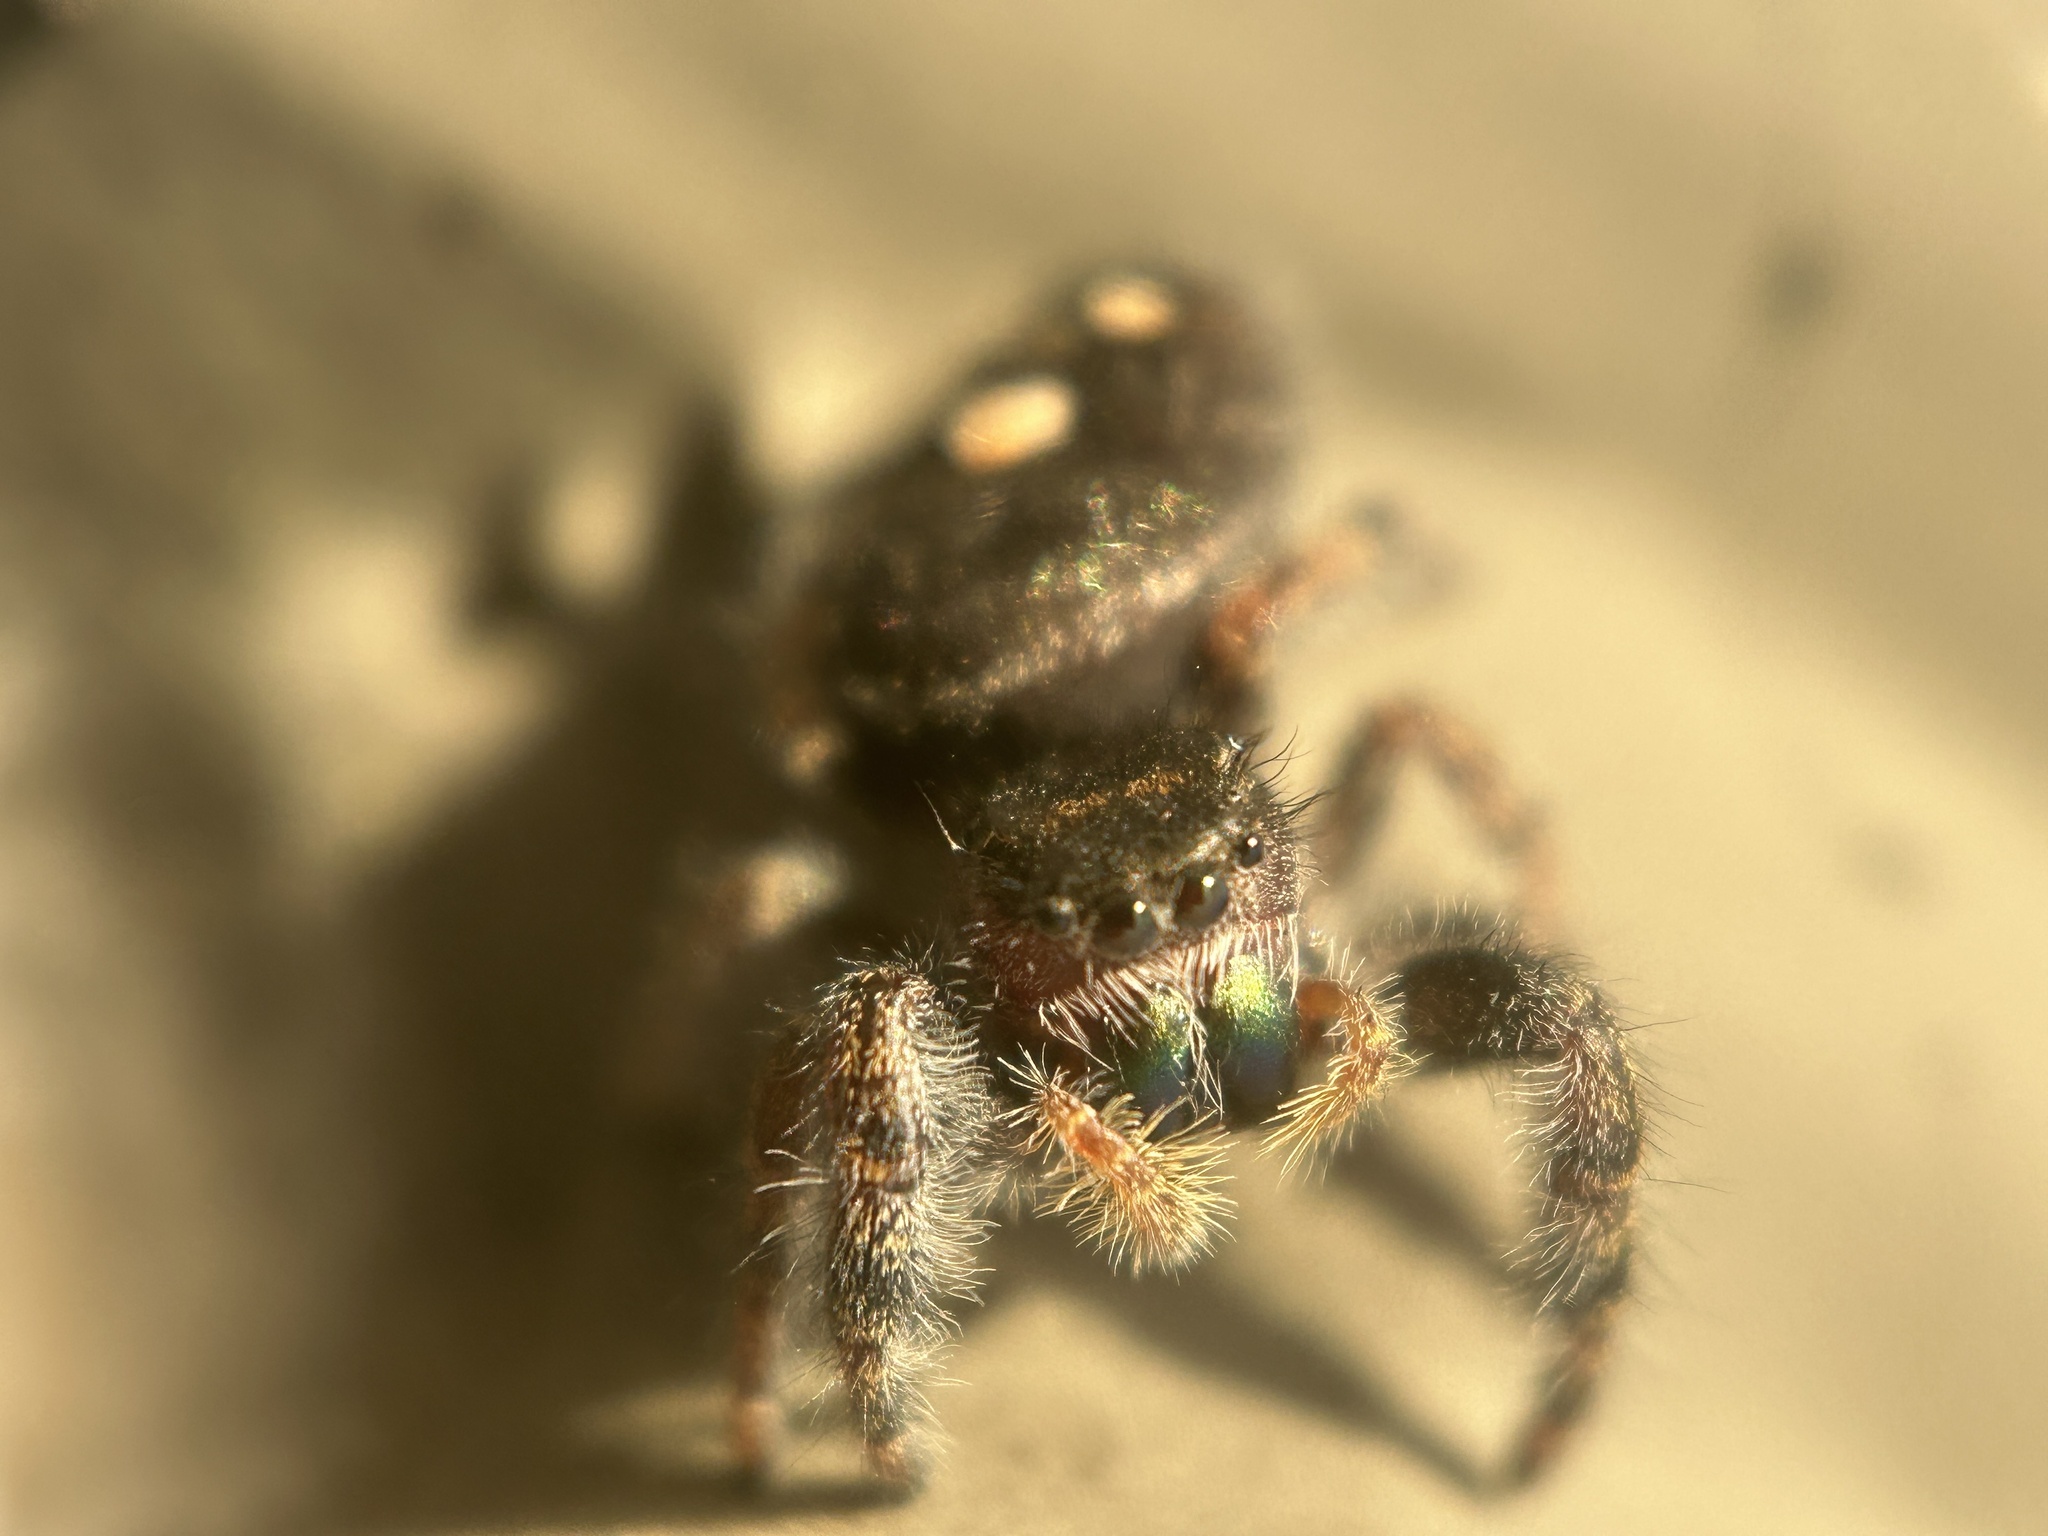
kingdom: Animalia
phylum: Arthropoda
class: Arachnida
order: Araneae
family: Salticidae
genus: Phidippus
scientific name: Phidippus audax
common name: Bold jumper
